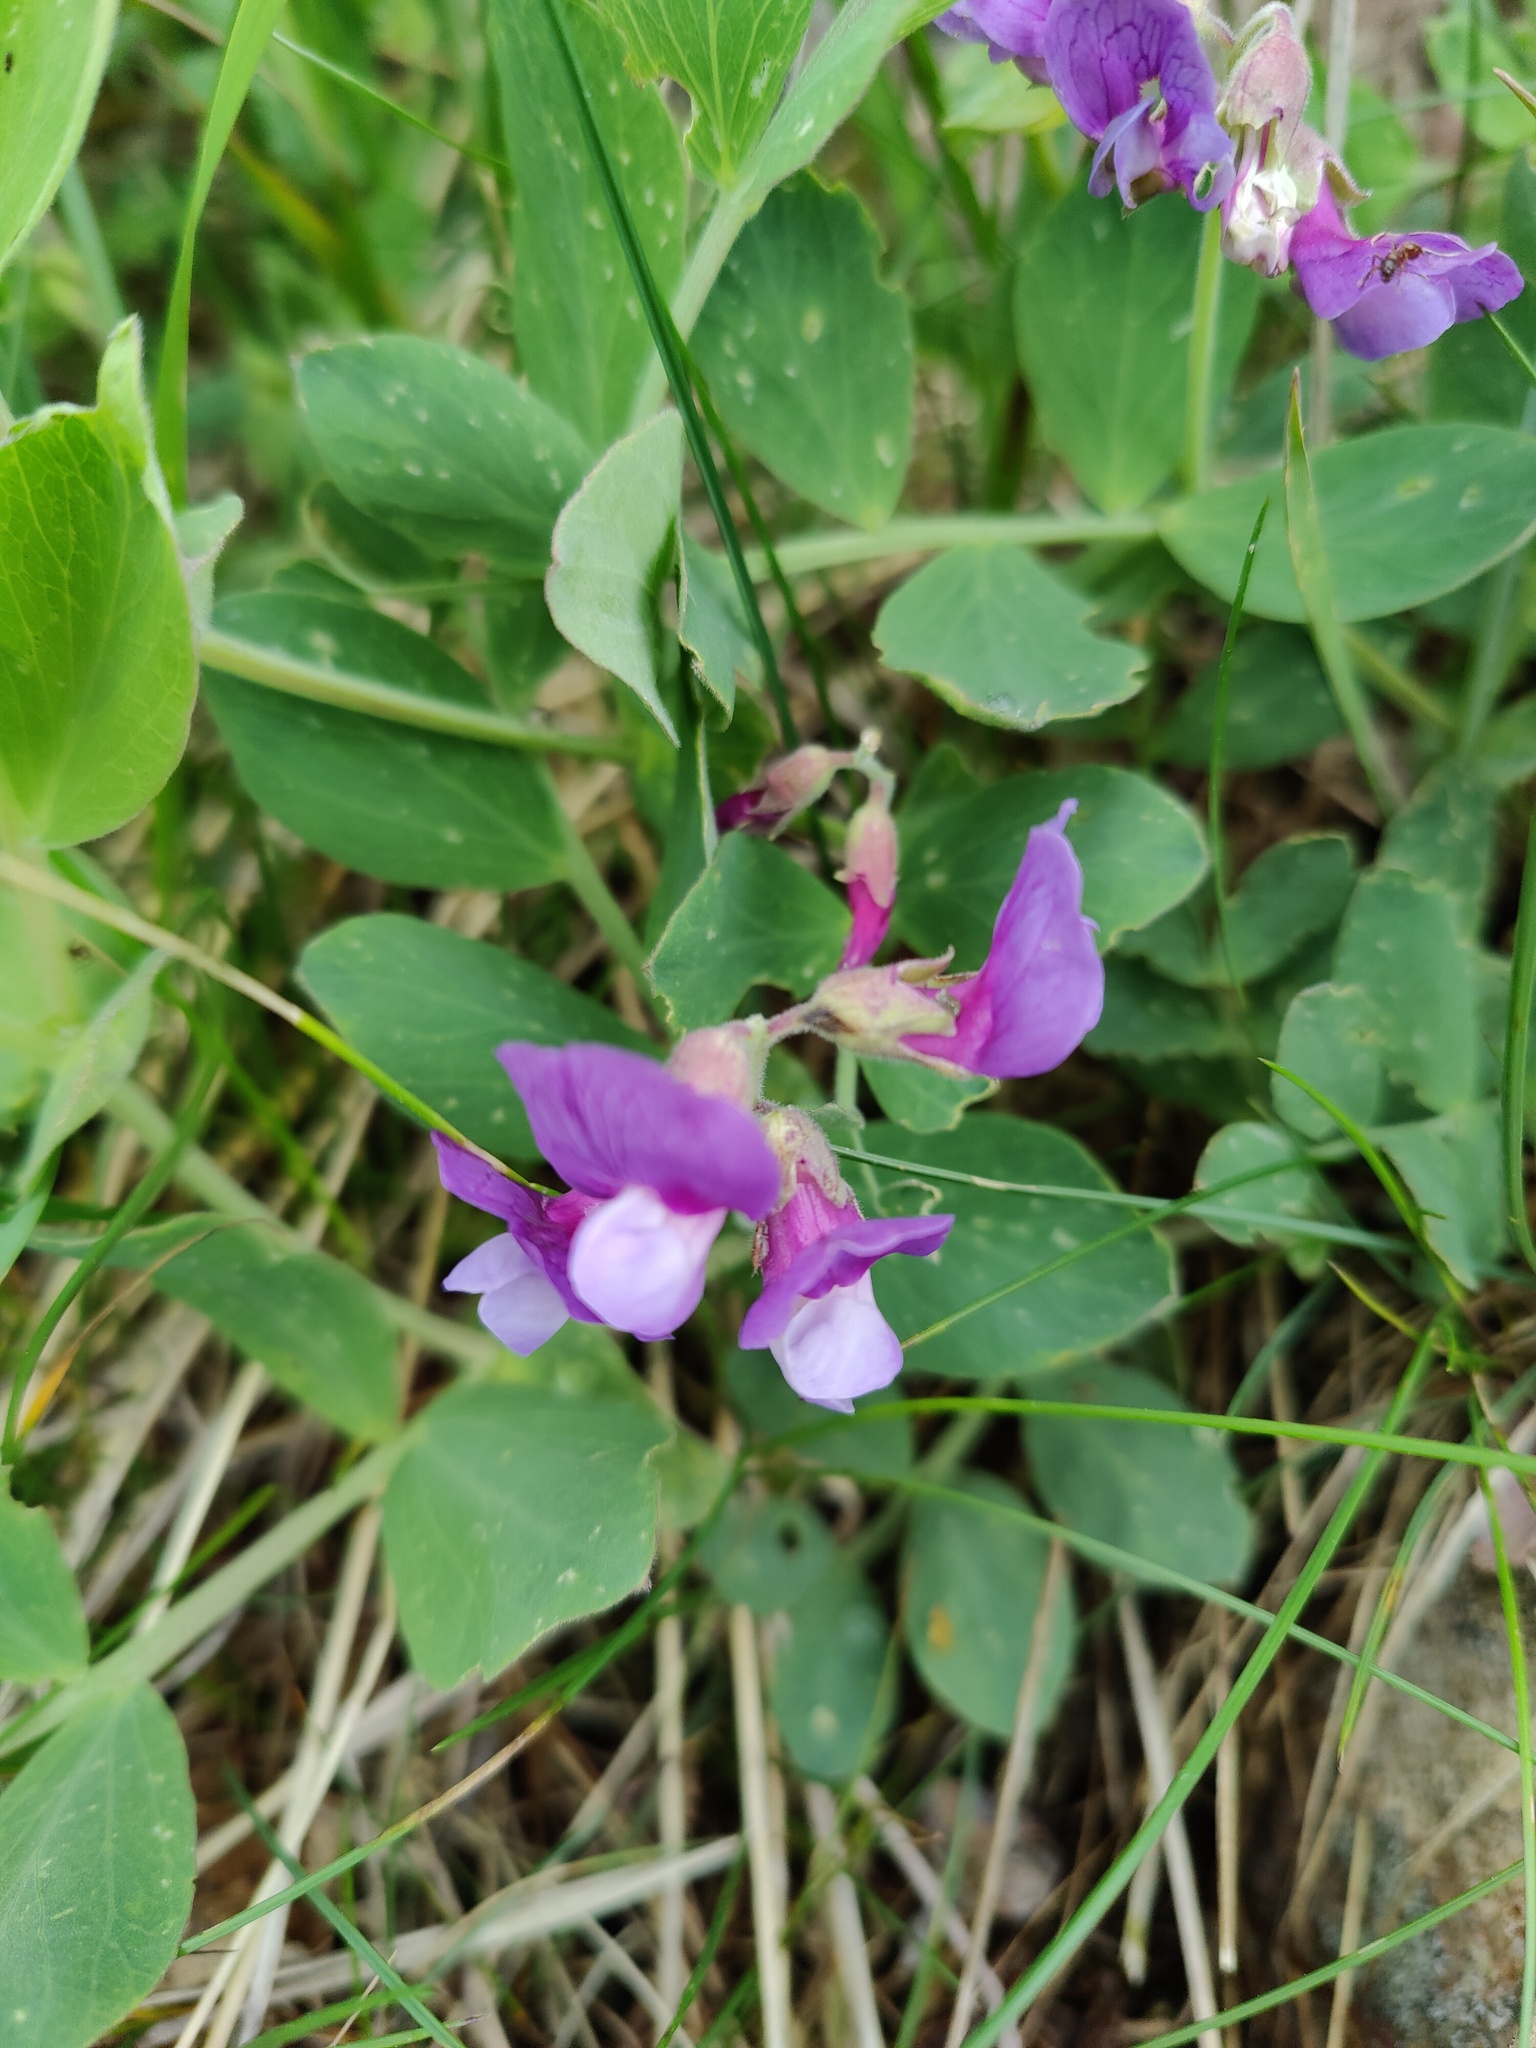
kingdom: Plantae
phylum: Tracheophyta
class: Magnoliopsida
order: Fabales
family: Fabaceae
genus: Lathyrus
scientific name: Lathyrus japonicus
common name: Sea pea
